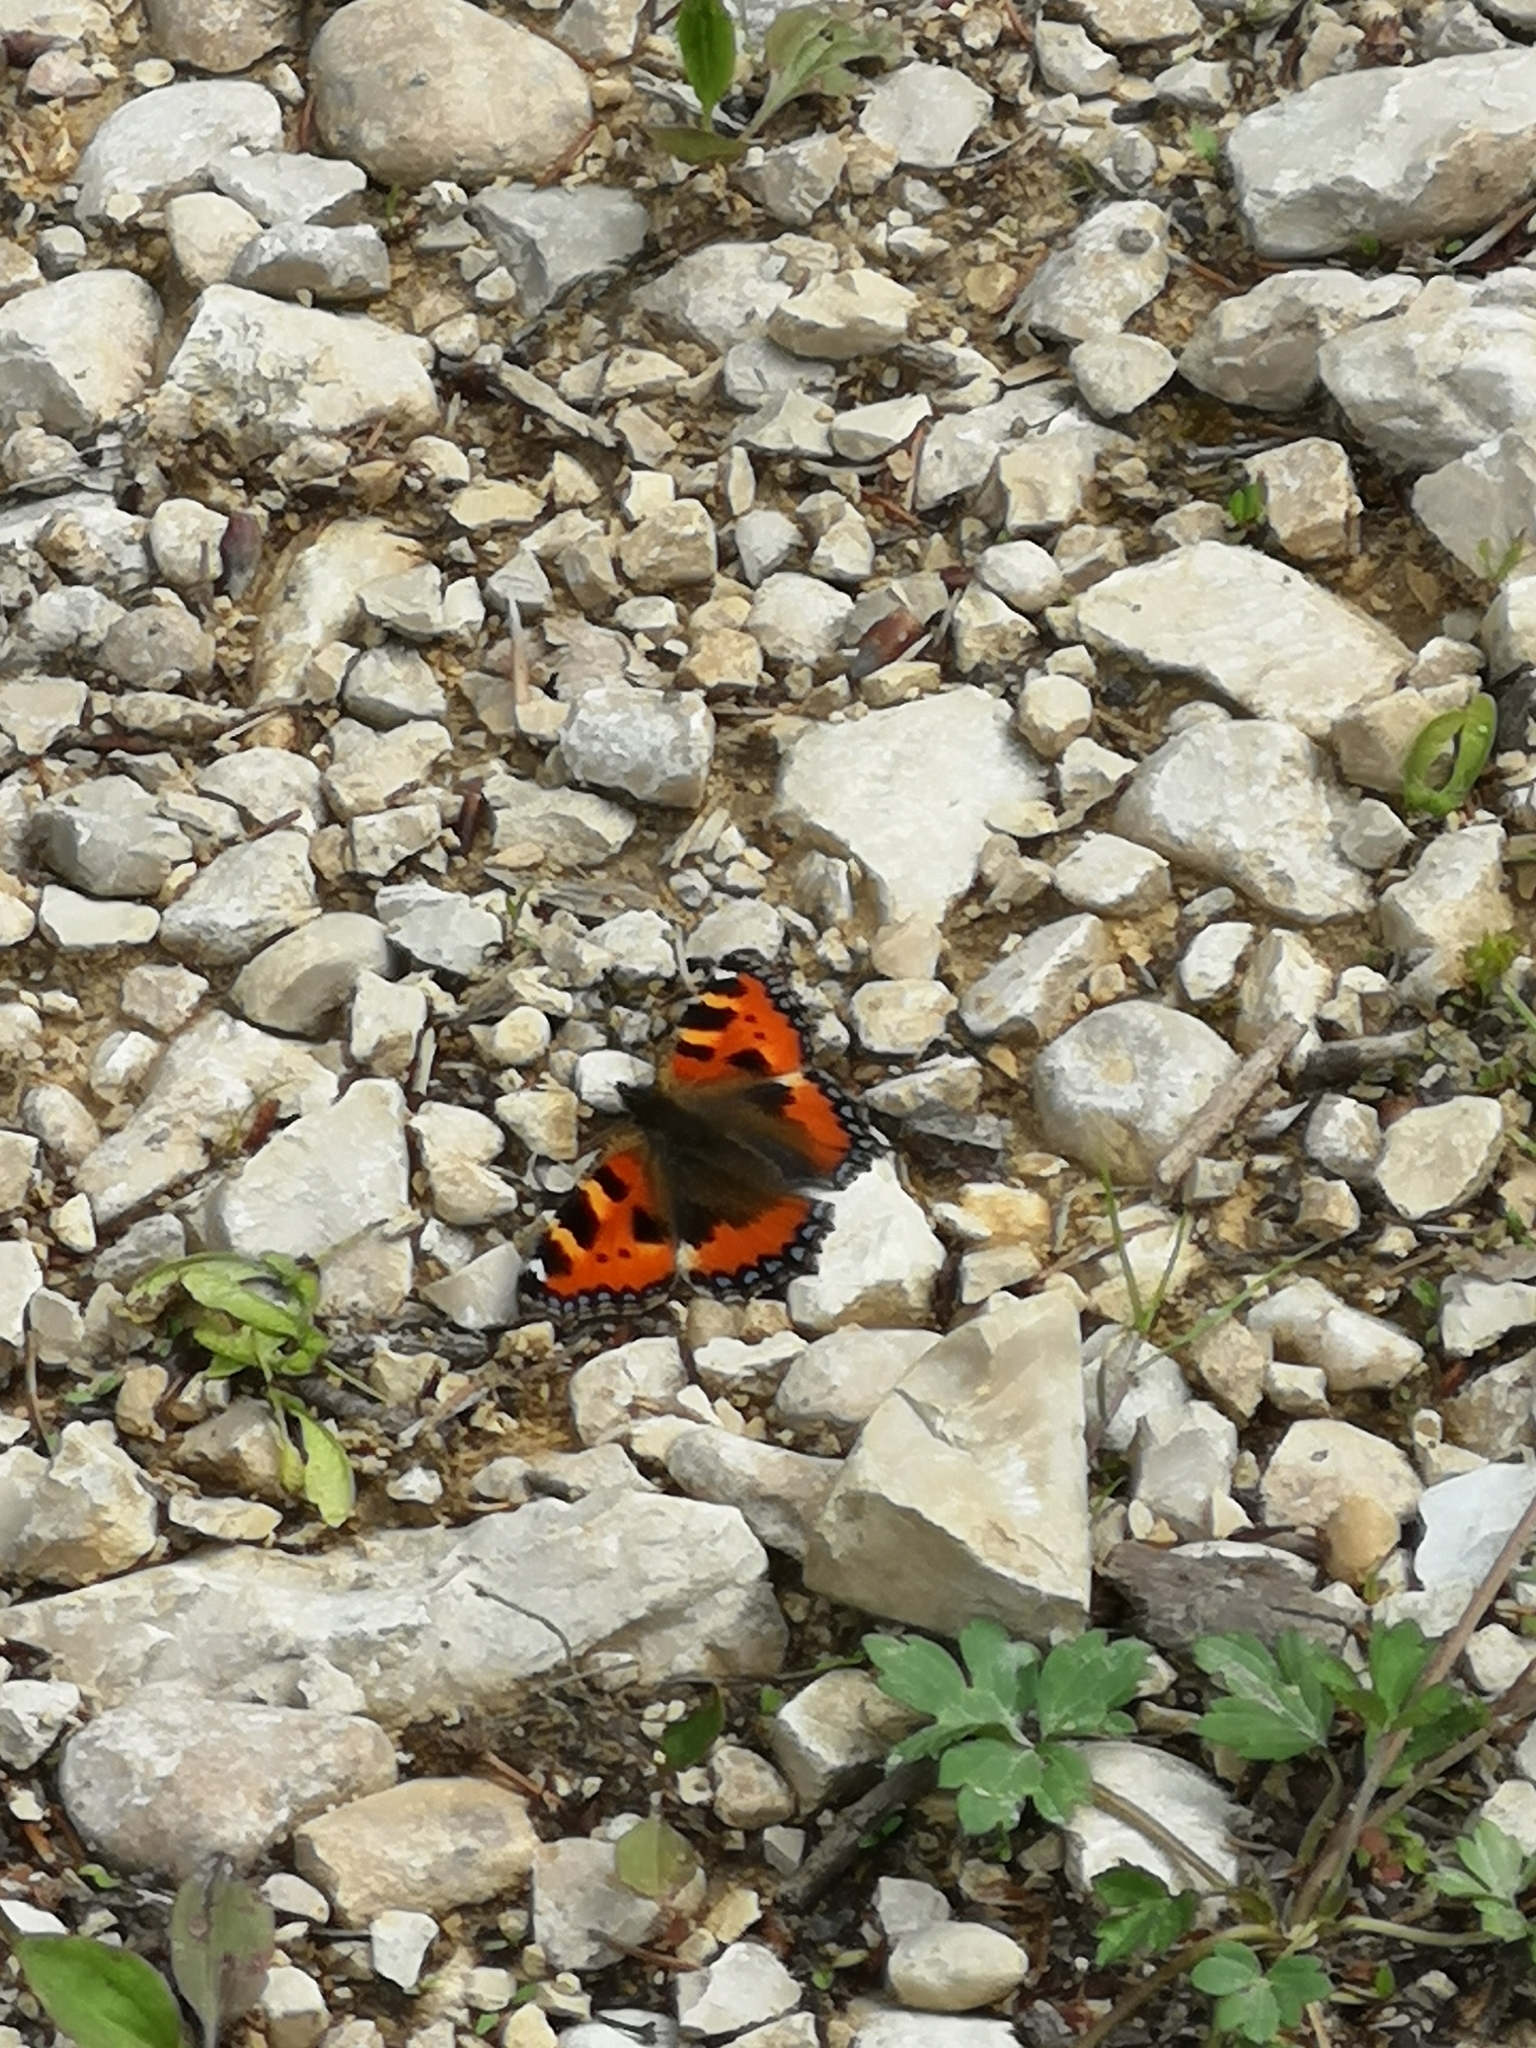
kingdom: Animalia
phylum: Arthropoda
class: Insecta
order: Lepidoptera
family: Nymphalidae
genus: Aglais
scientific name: Aglais urticae
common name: Small tortoiseshell
